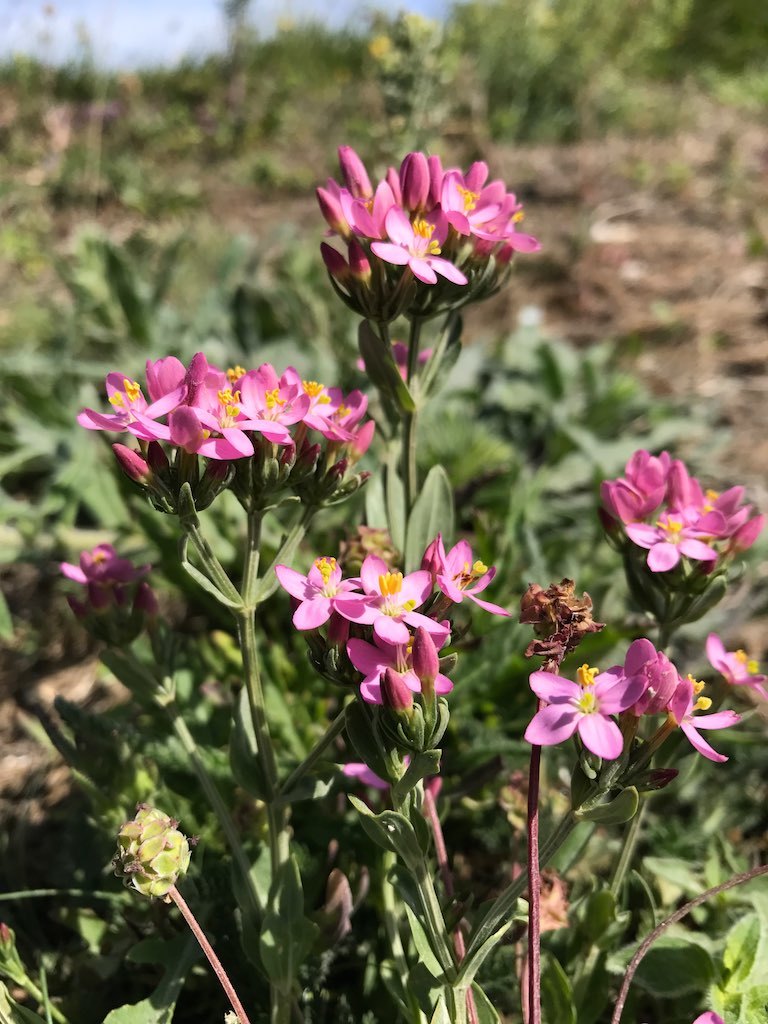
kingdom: Plantae
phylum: Tracheophyta
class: Magnoliopsida
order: Gentianales
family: Gentianaceae
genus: Centaurium
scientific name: Centaurium erythraea
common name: Common centaury
